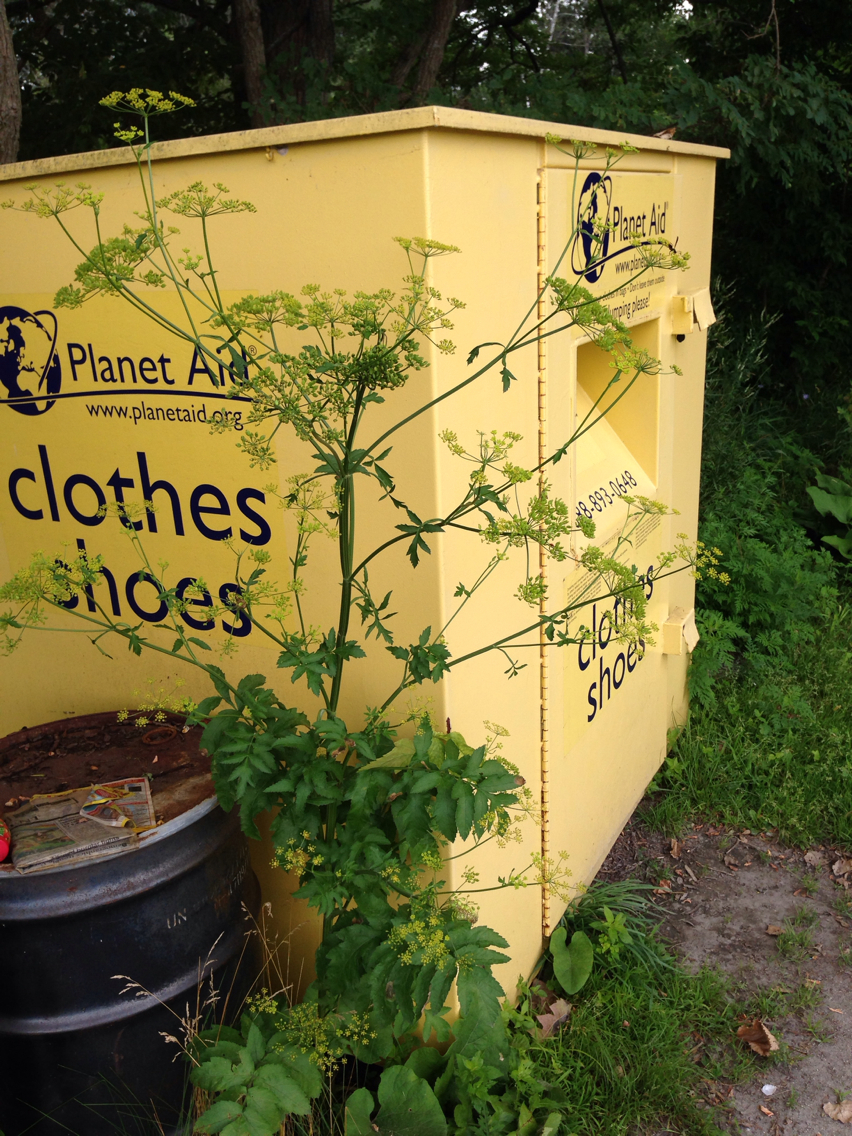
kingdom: Plantae
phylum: Tracheophyta
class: Magnoliopsida
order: Apiales
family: Apiaceae
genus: Pastinaca
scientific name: Pastinaca sativa
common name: Wild parsnip
